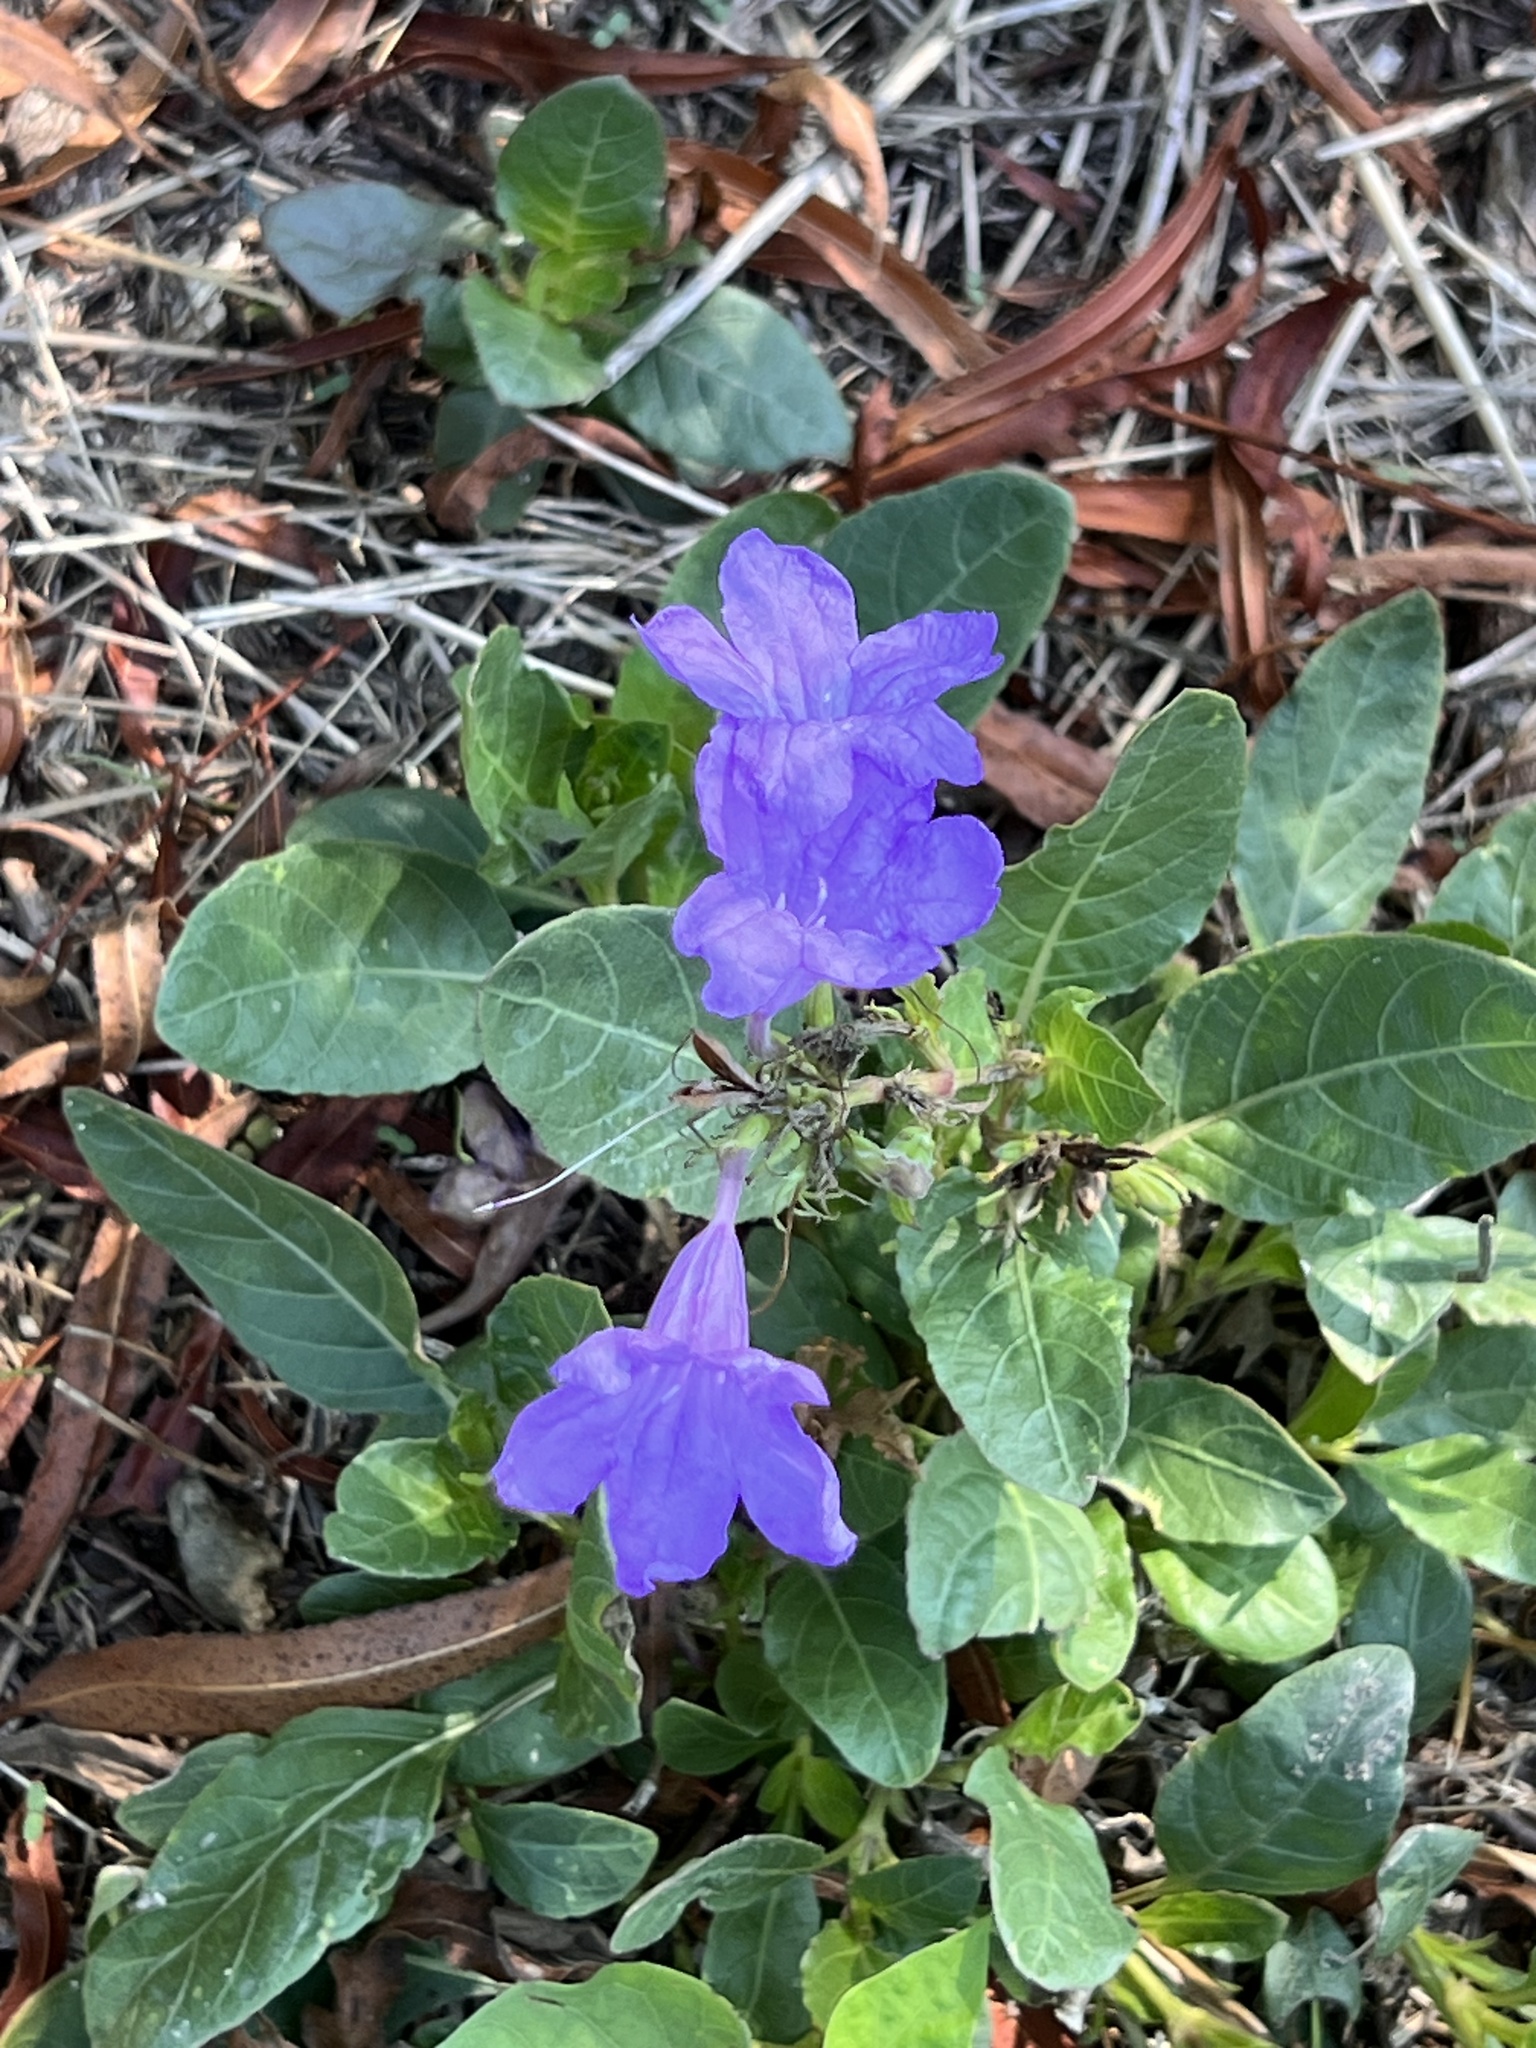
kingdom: Plantae
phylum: Tracheophyta
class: Magnoliopsida
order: Lamiales
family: Acanthaceae
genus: Ruellia
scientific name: Ruellia ciliatiflora
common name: Hairyflower wild petunia
